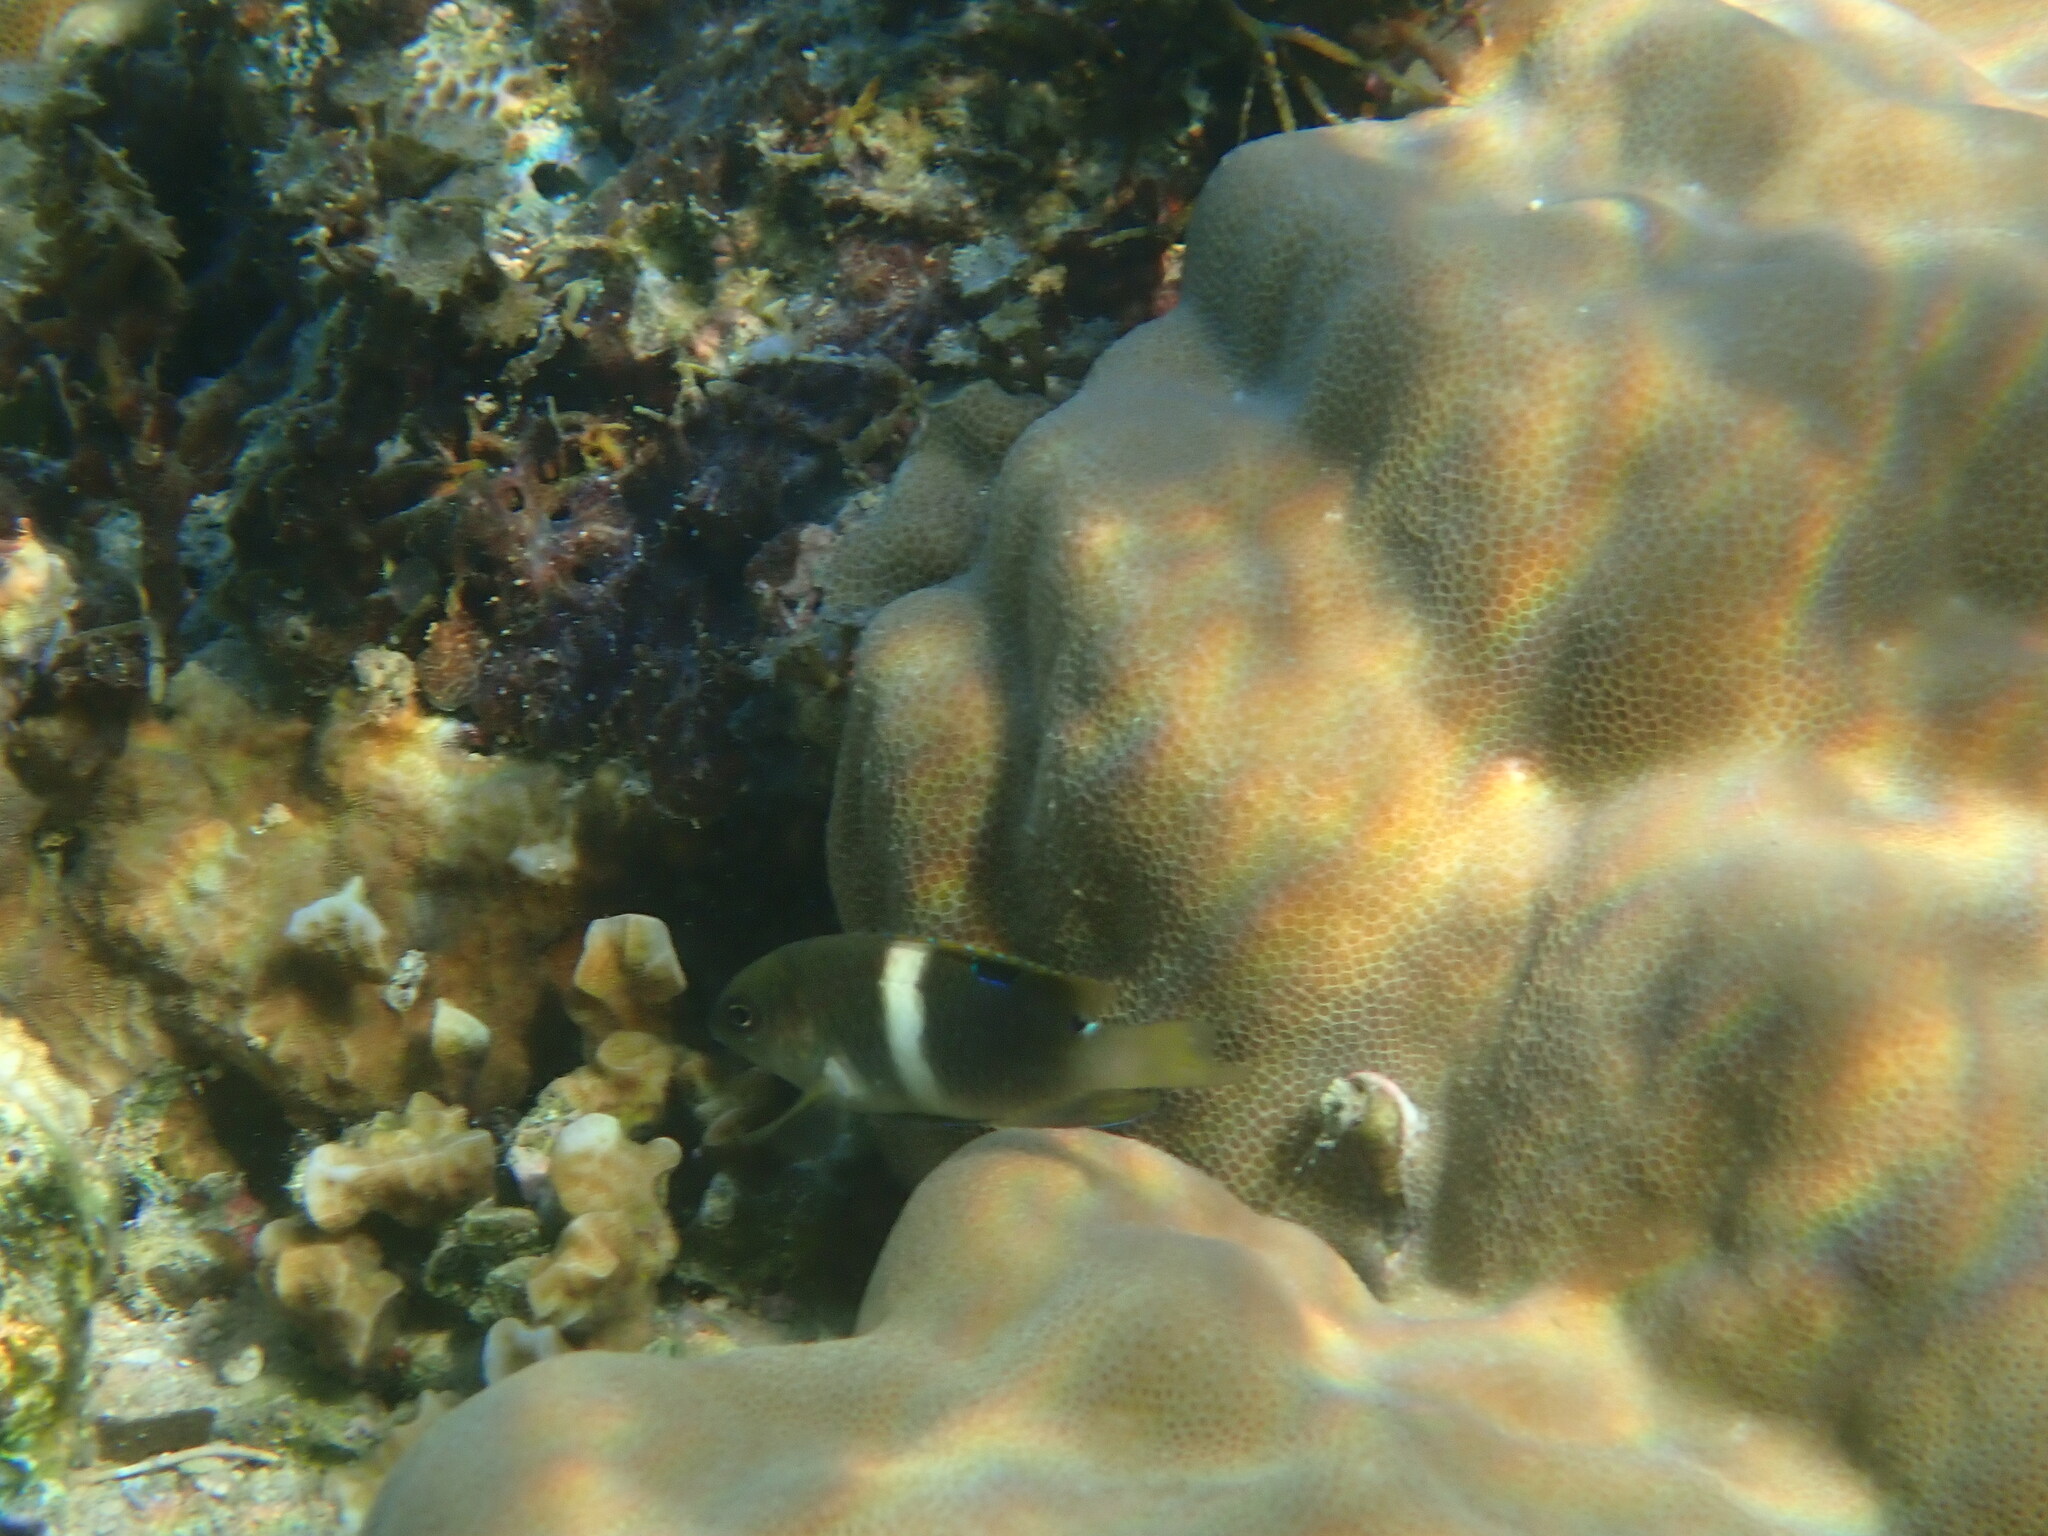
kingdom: Animalia
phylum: Chordata
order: Perciformes
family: Pomacentridae
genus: Chrysiptera
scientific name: Chrysiptera biocellata
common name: Twinspot damselfish
